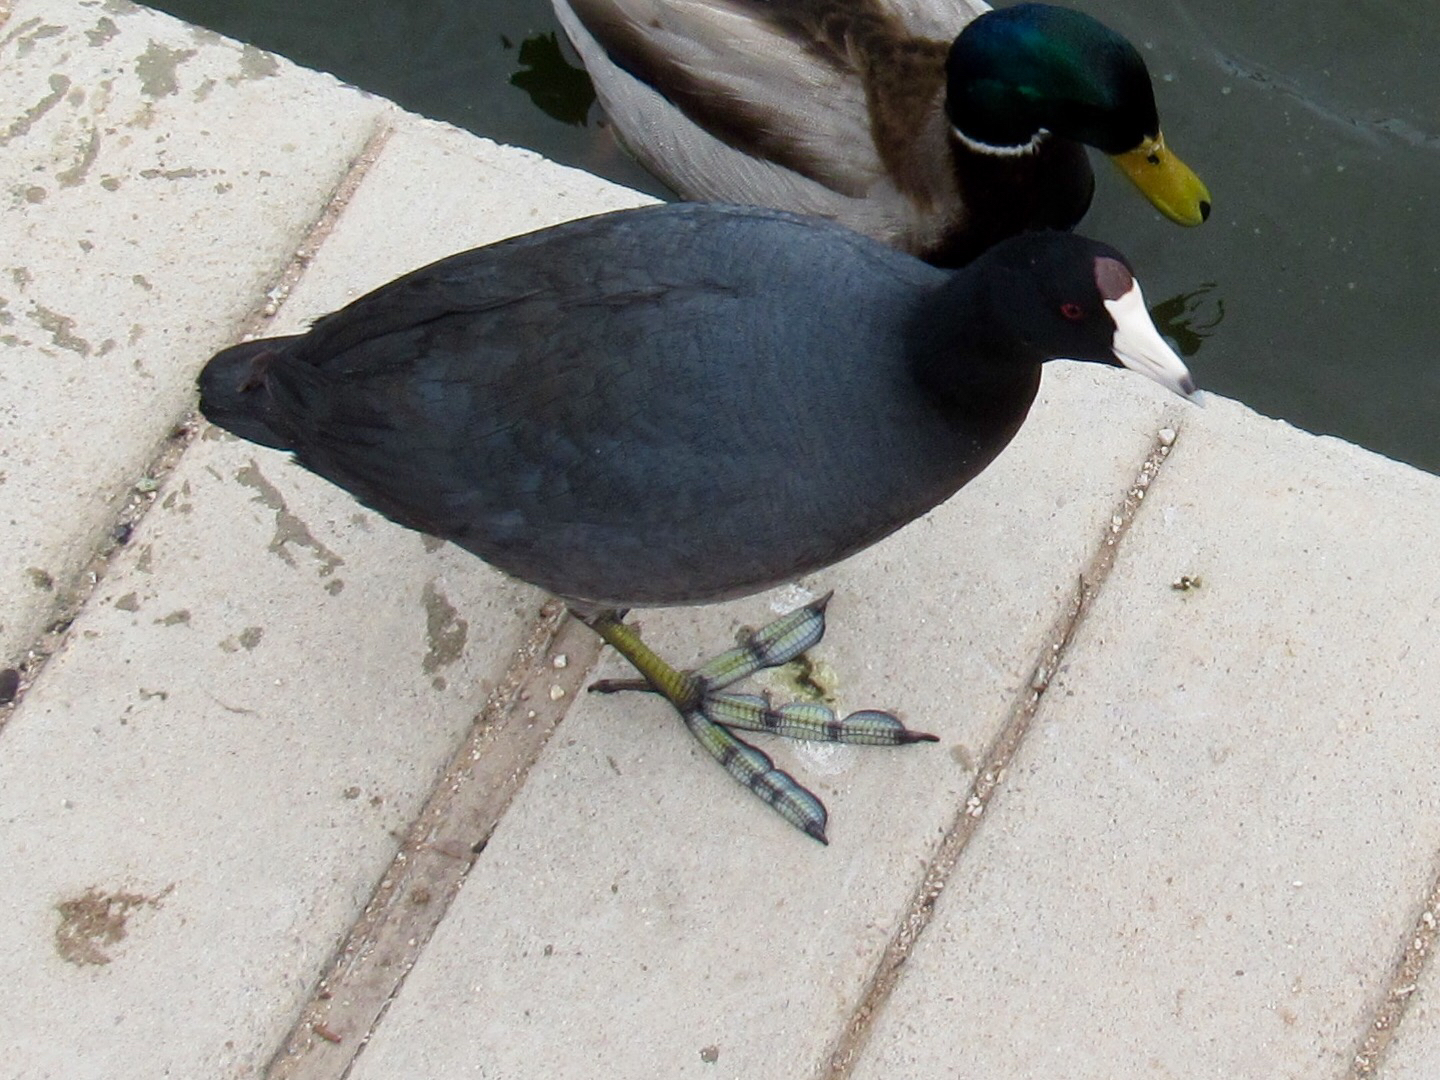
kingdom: Animalia
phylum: Chordata
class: Aves
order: Gruiformes
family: Rallidae
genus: Fulica
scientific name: Fulica americana
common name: American coot
